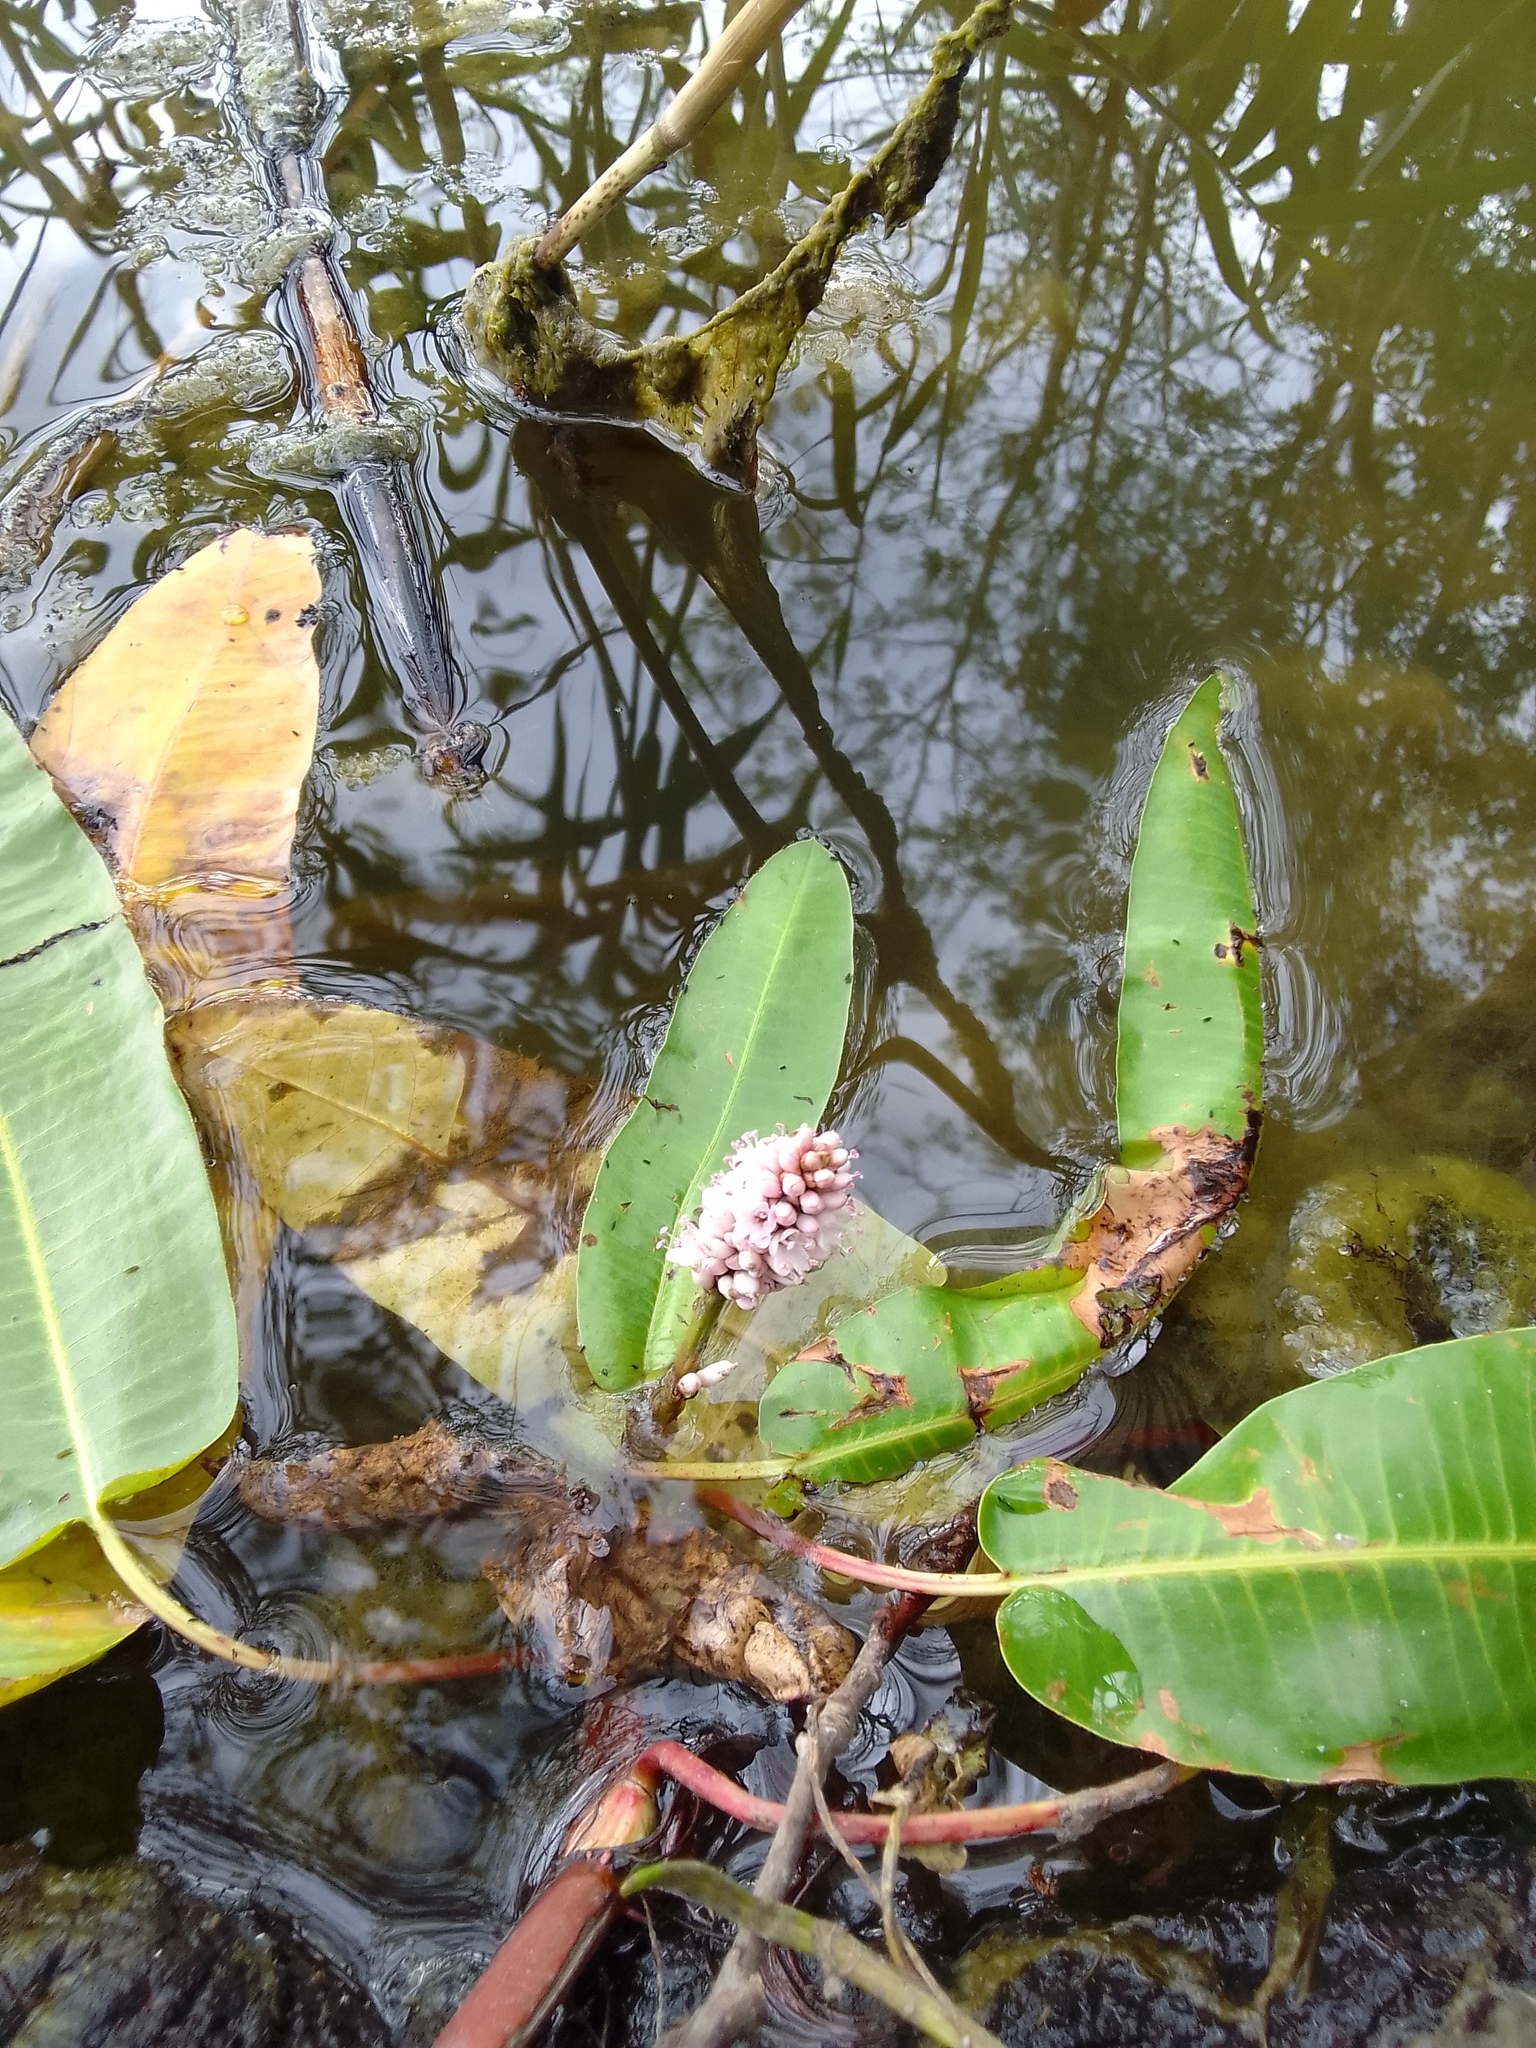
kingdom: Plantae
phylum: Tracheophyta
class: Magnoliopsida
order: Caryophyllales
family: Polygonaceae
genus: Persicaria
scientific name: Persicaria amphibia
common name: Amphibious bistort
